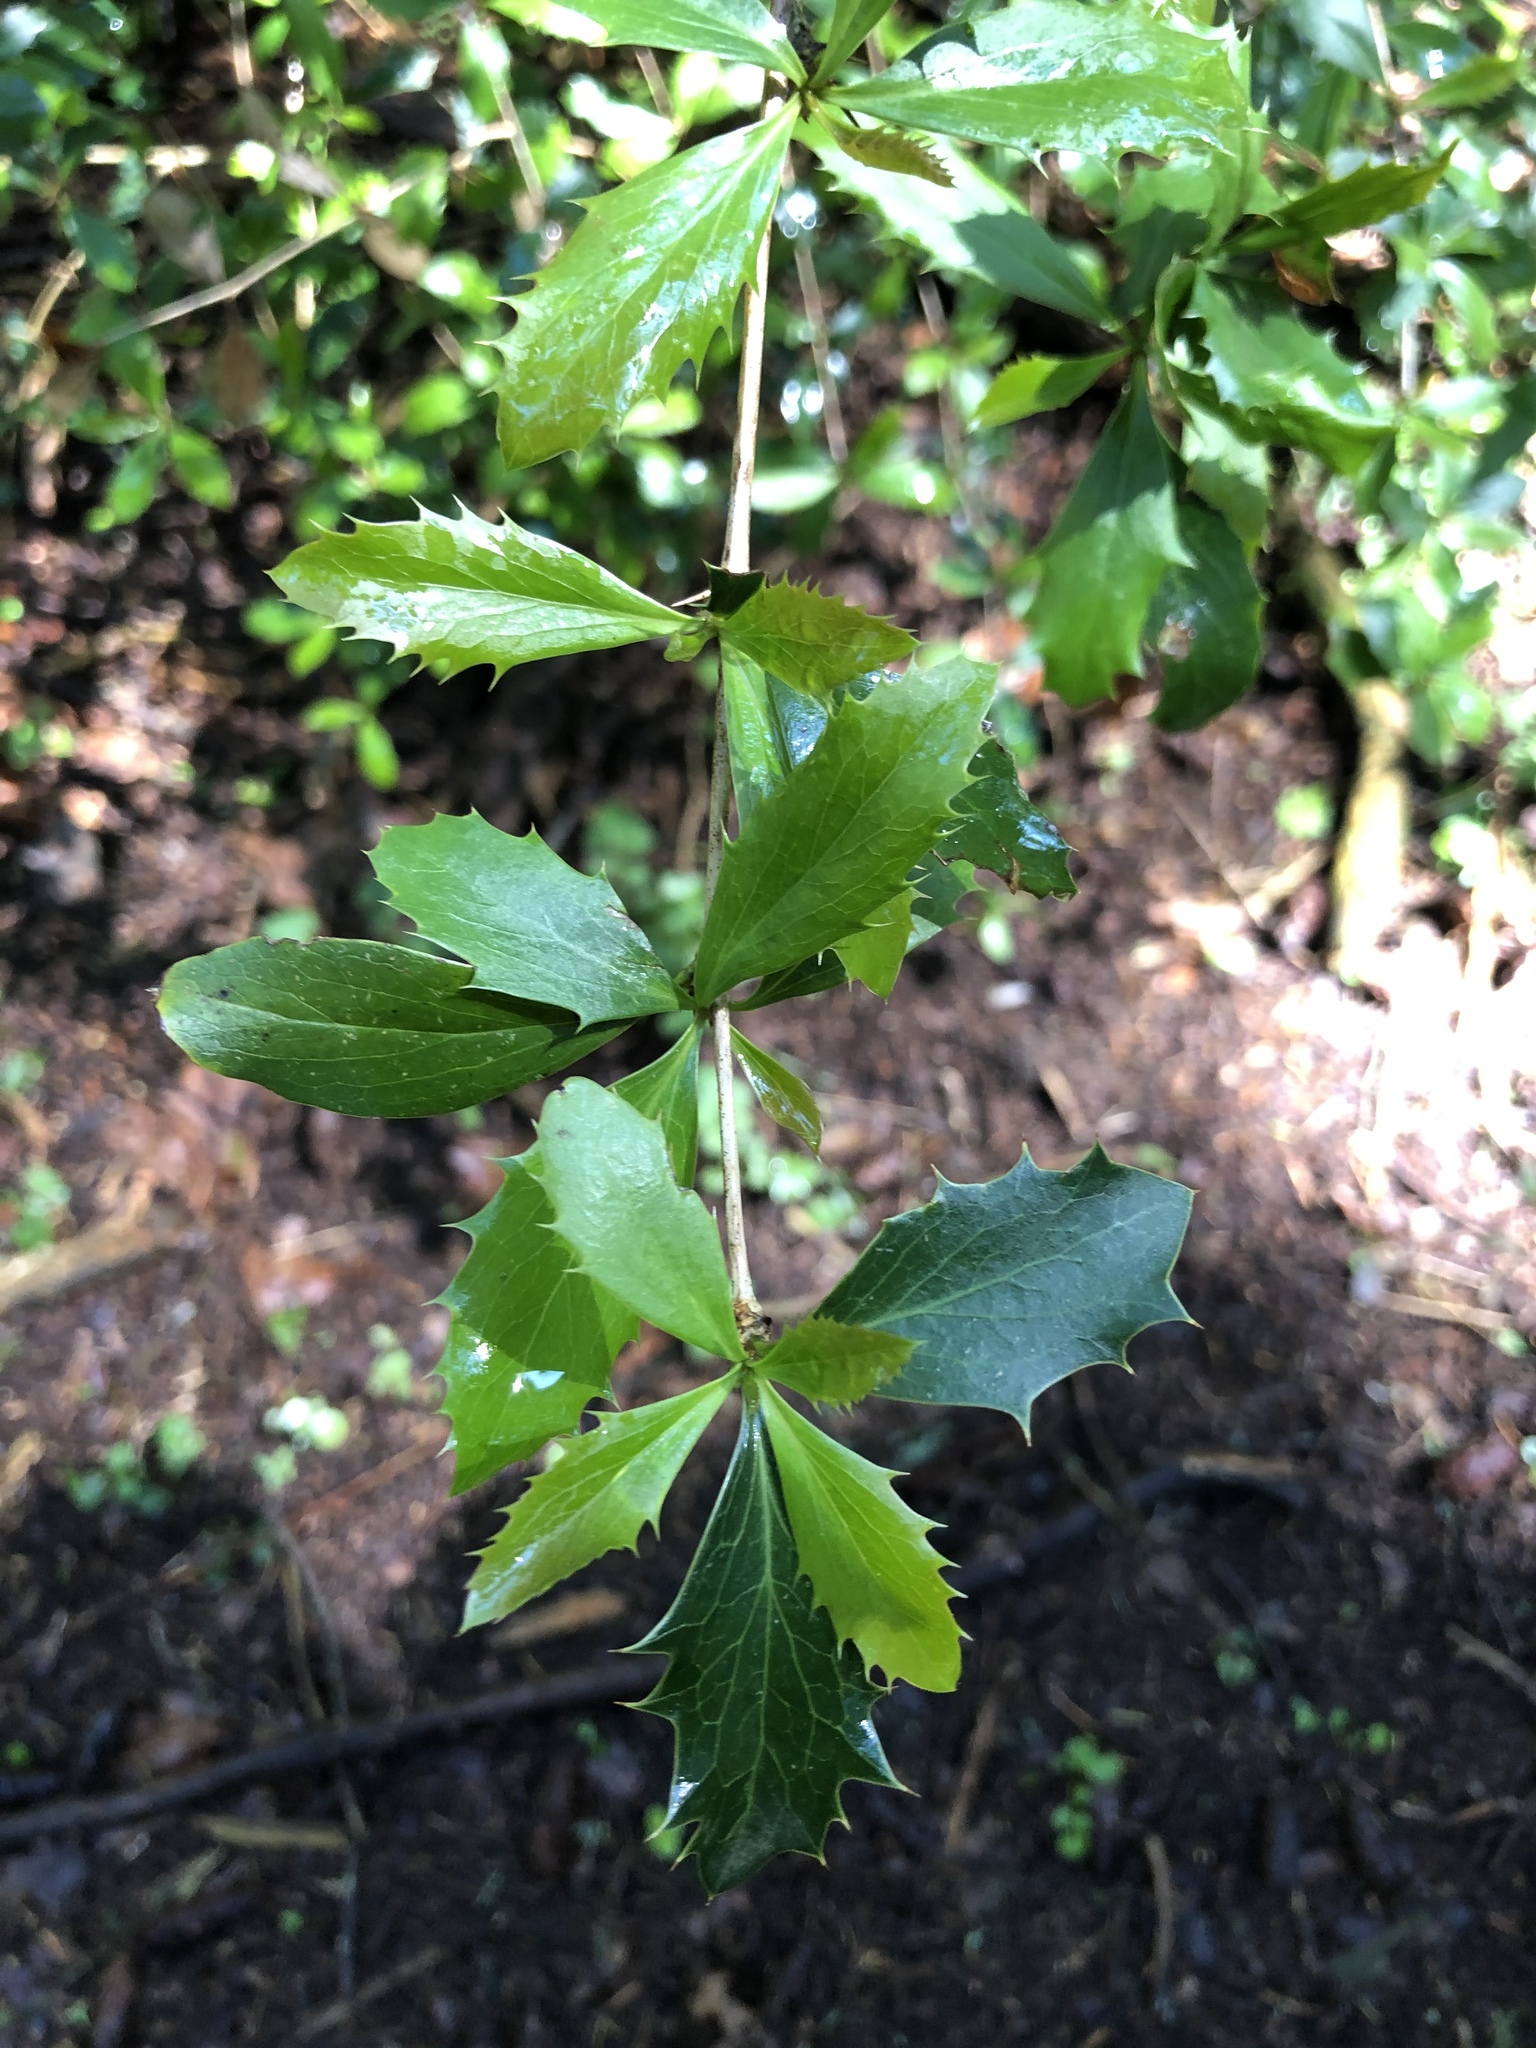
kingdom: Plantae
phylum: Tracheophyta
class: Magnoliopsida
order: Ranunculales
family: Berberidaceae
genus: Berberis
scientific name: Berberis glaucocarpa
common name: Great barberry
